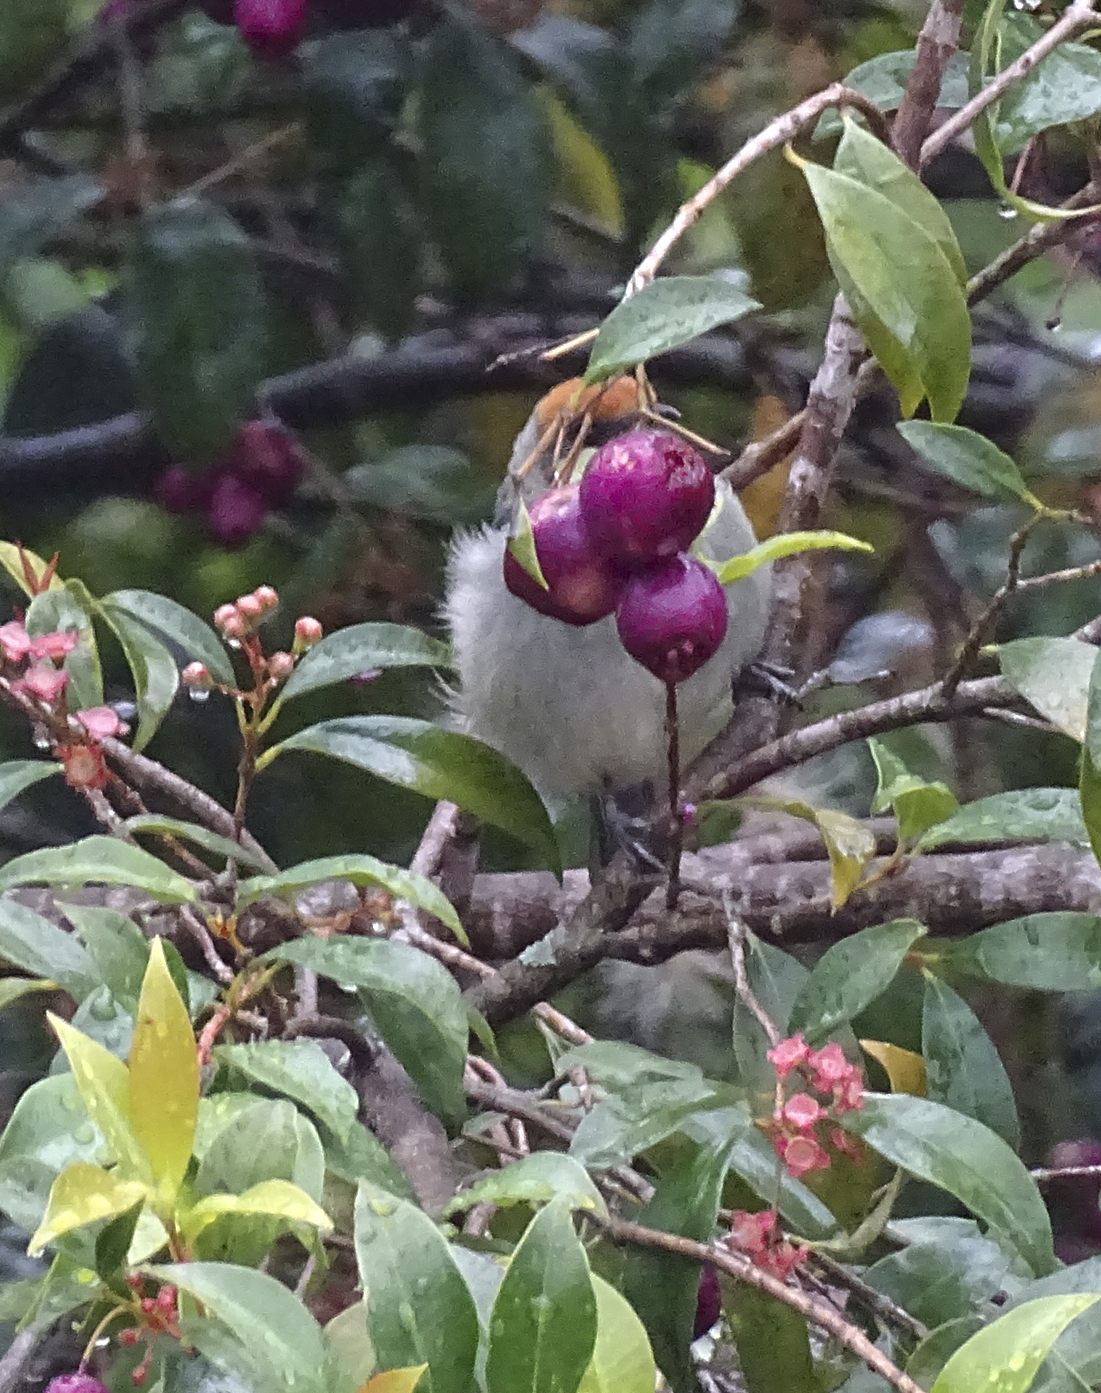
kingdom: Animalia
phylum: Chordata
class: Aves
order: Passeriformes
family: Thraupidae
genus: Stilpnia
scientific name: Stilpnia vitriolina
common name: Scrub tanager
